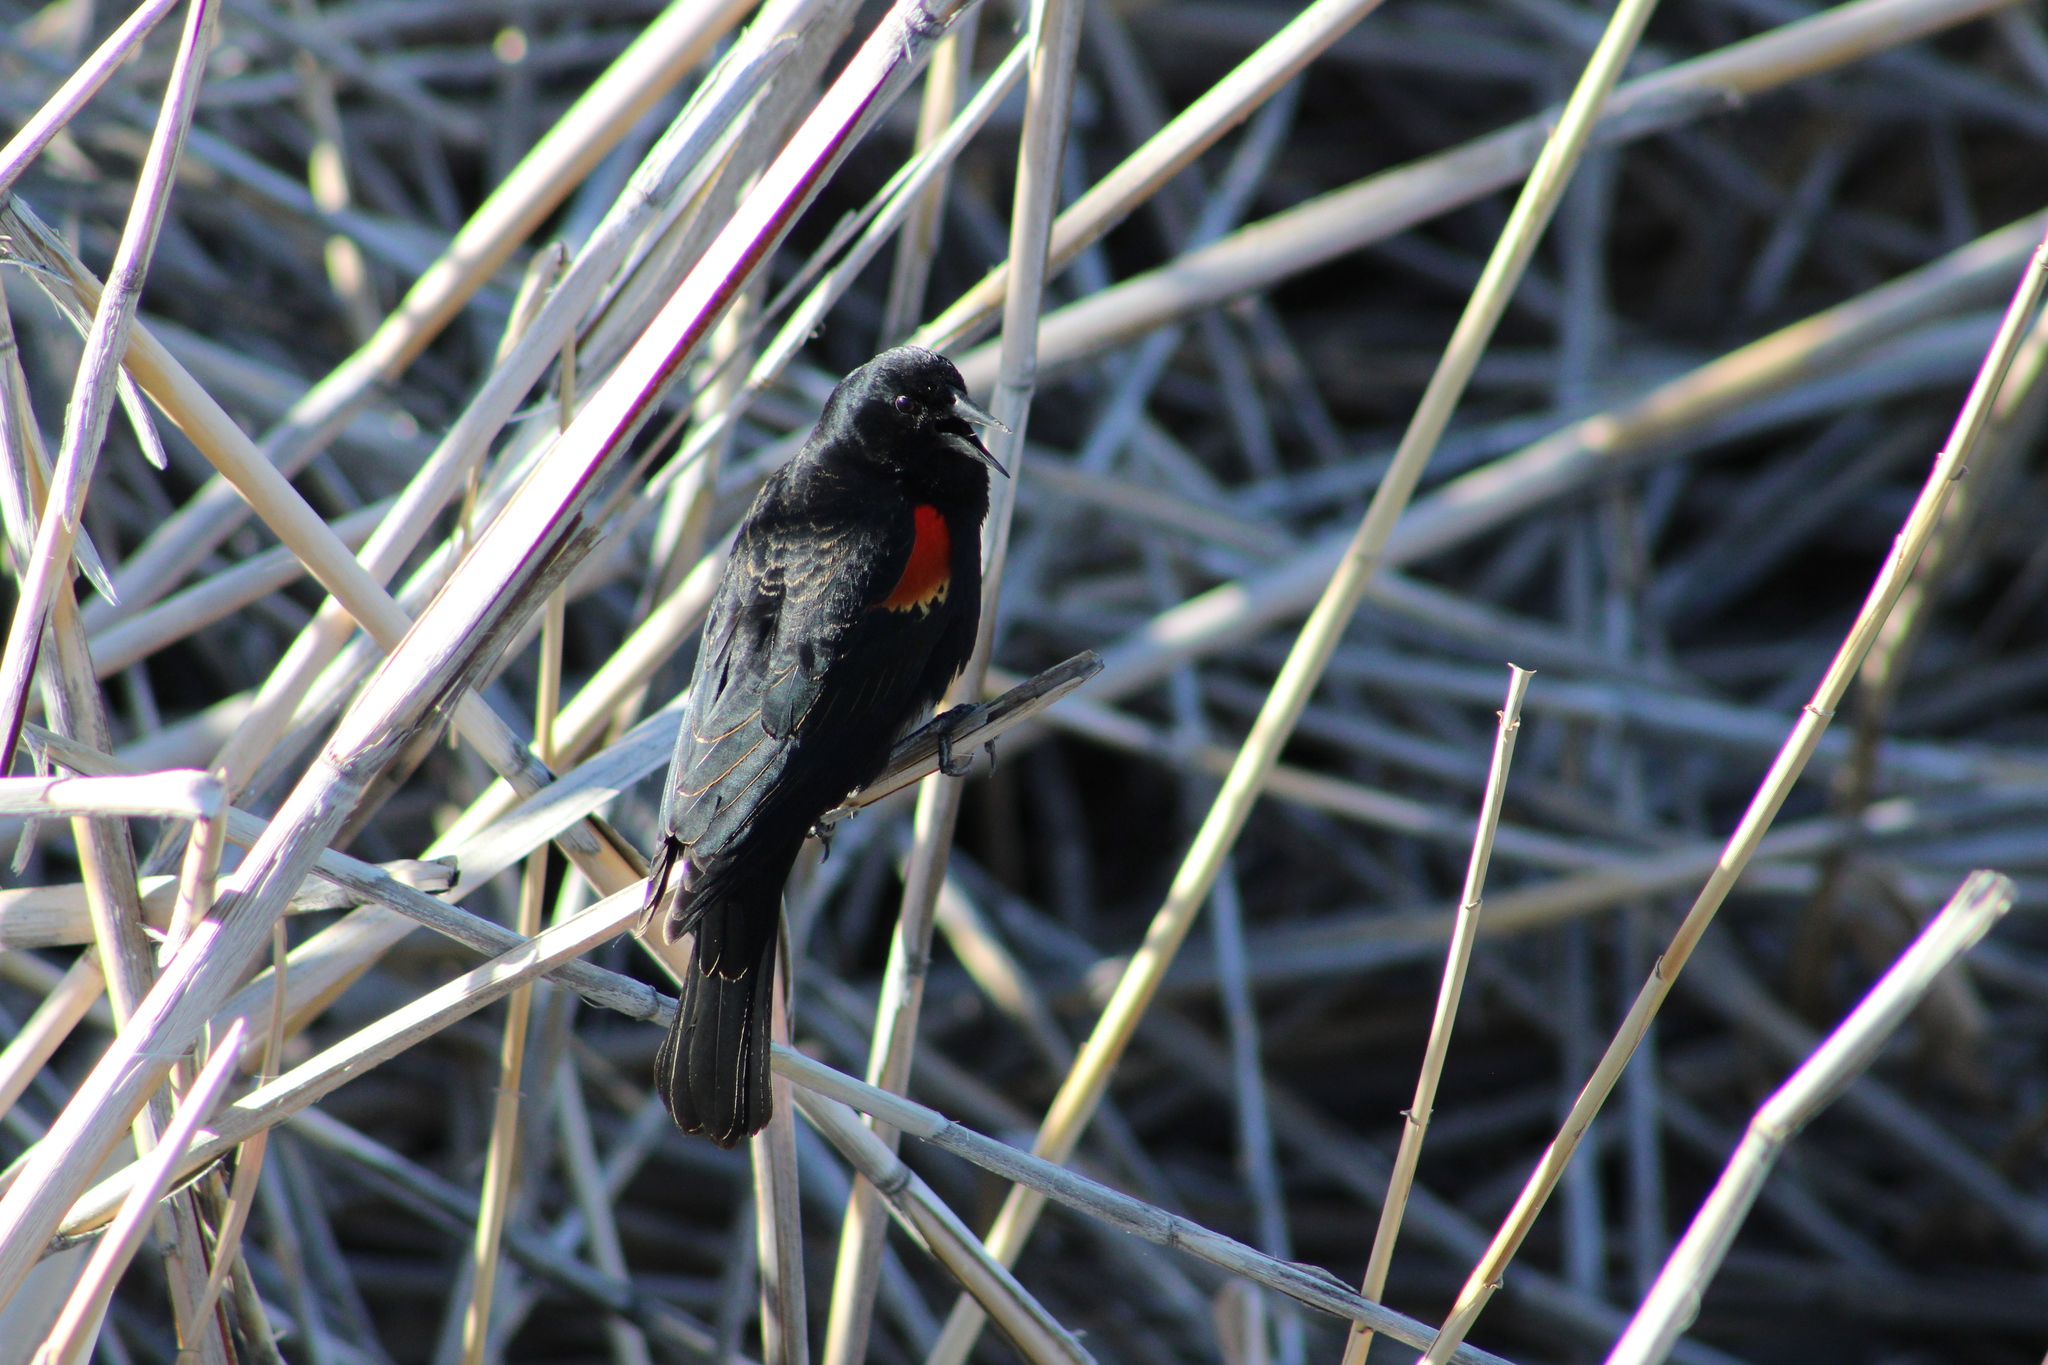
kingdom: Animalia
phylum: Chordata
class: Aves
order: Passeriformes
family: Icteridae
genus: Agelaius
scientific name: Agelaius phoeniceus
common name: Red-winged blackbird
